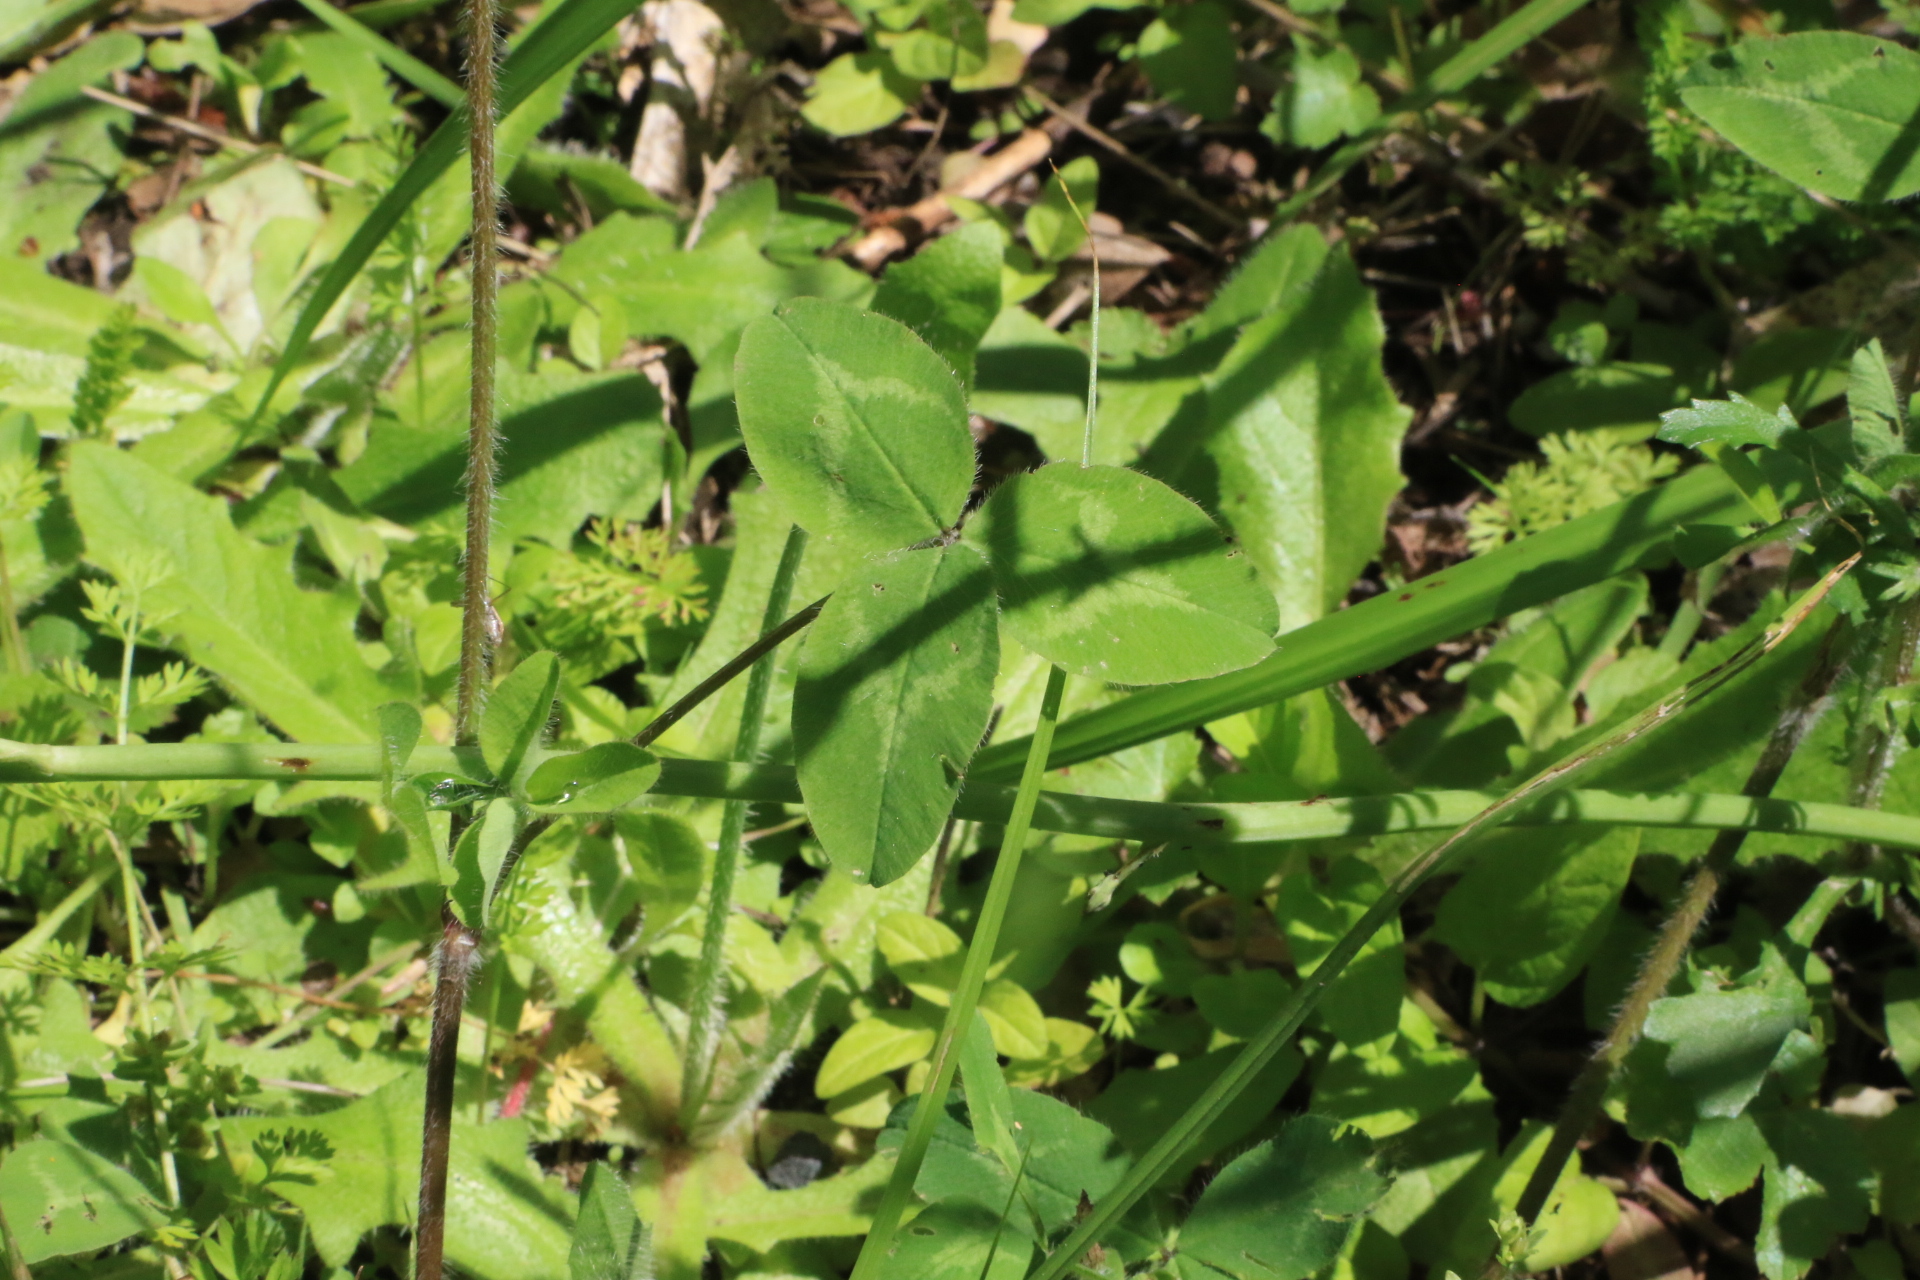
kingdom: Plantae
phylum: Tracheophyta
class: Magnoliopsida
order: Fabales
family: Fabaceae
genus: Trifolium
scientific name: Trifolium pratense
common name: Red clover
